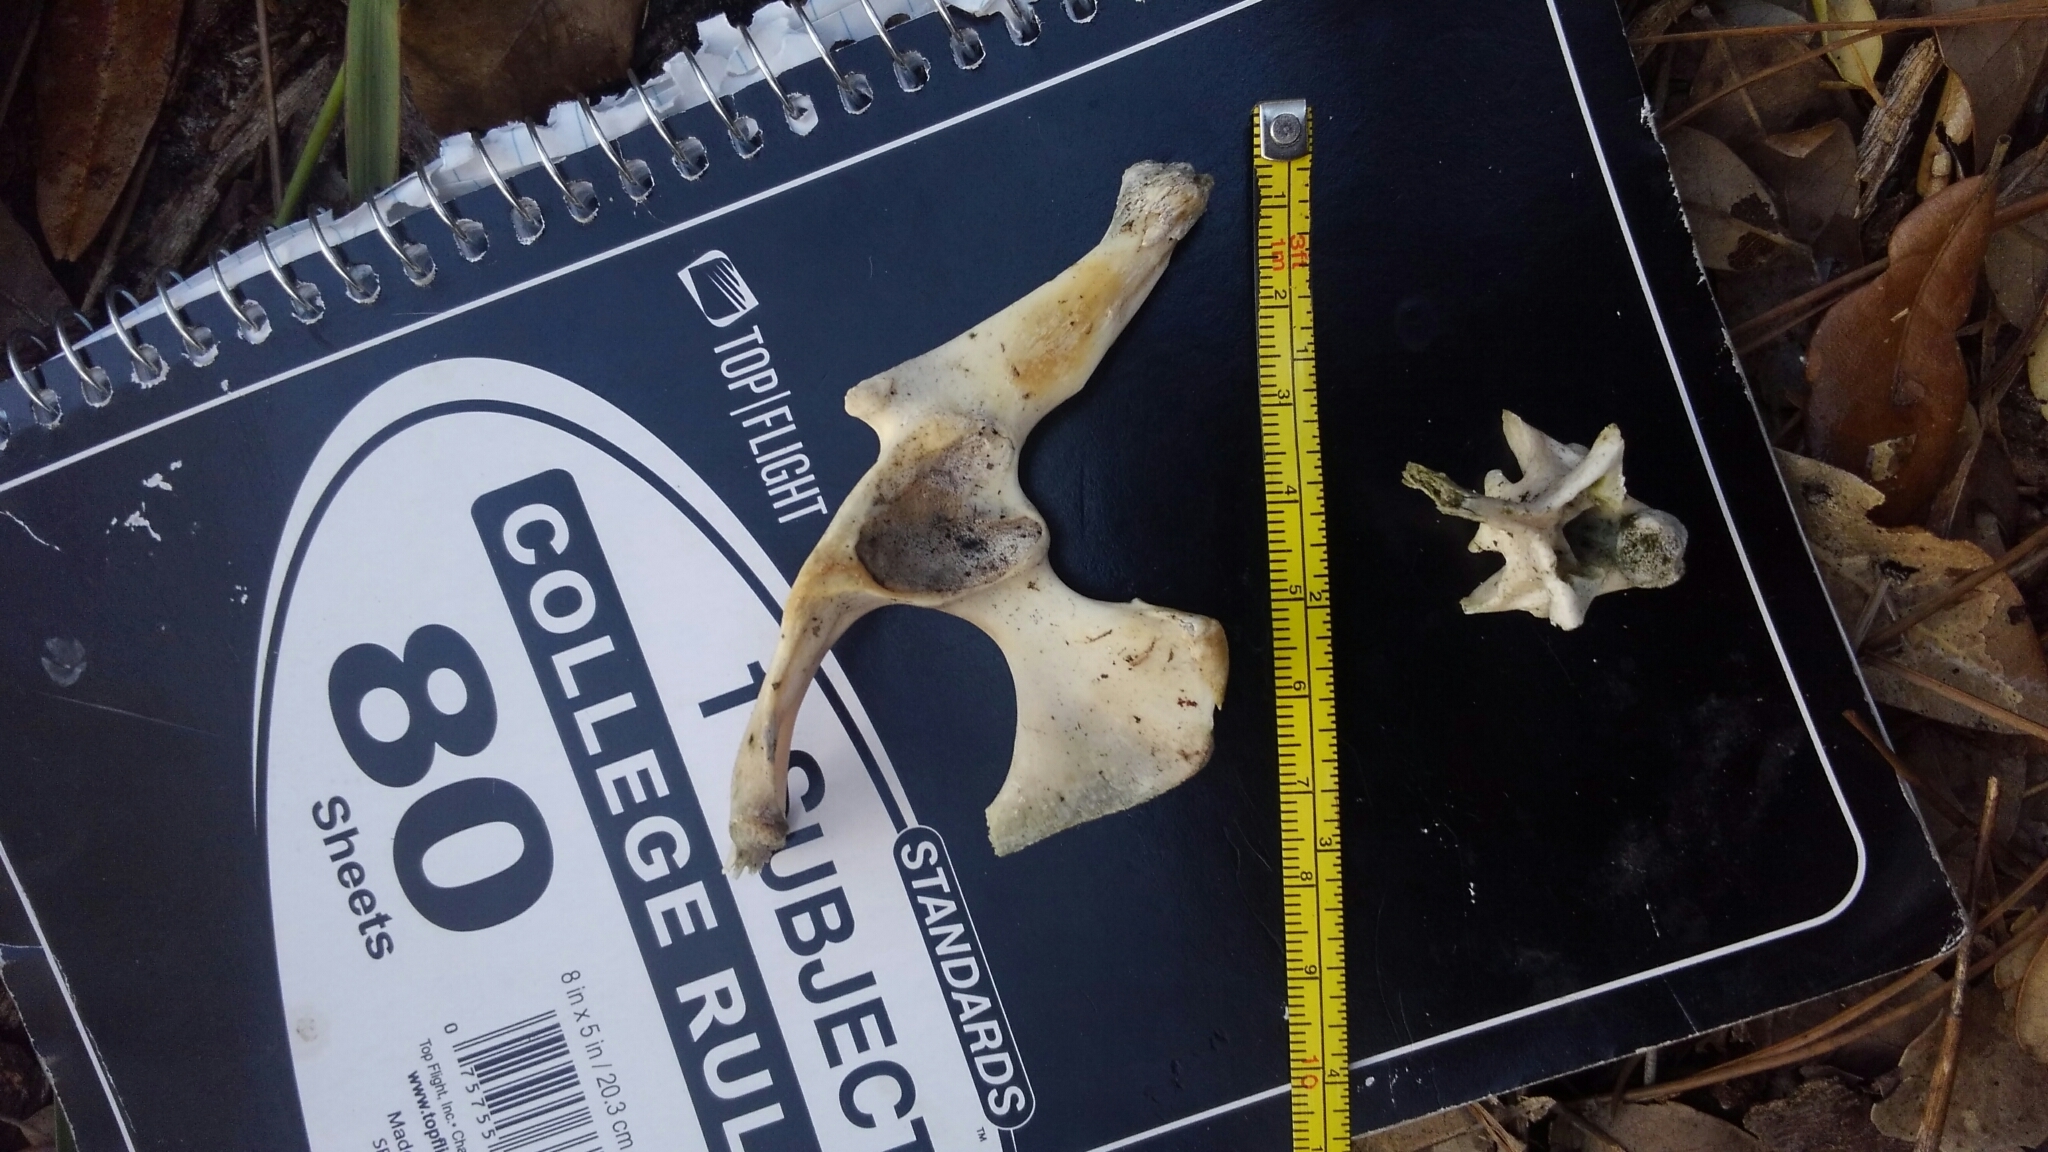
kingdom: Animalia
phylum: Chordata
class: Squamata
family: Iguanidae
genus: Iguana
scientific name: Iguana iguana
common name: Green iguana
